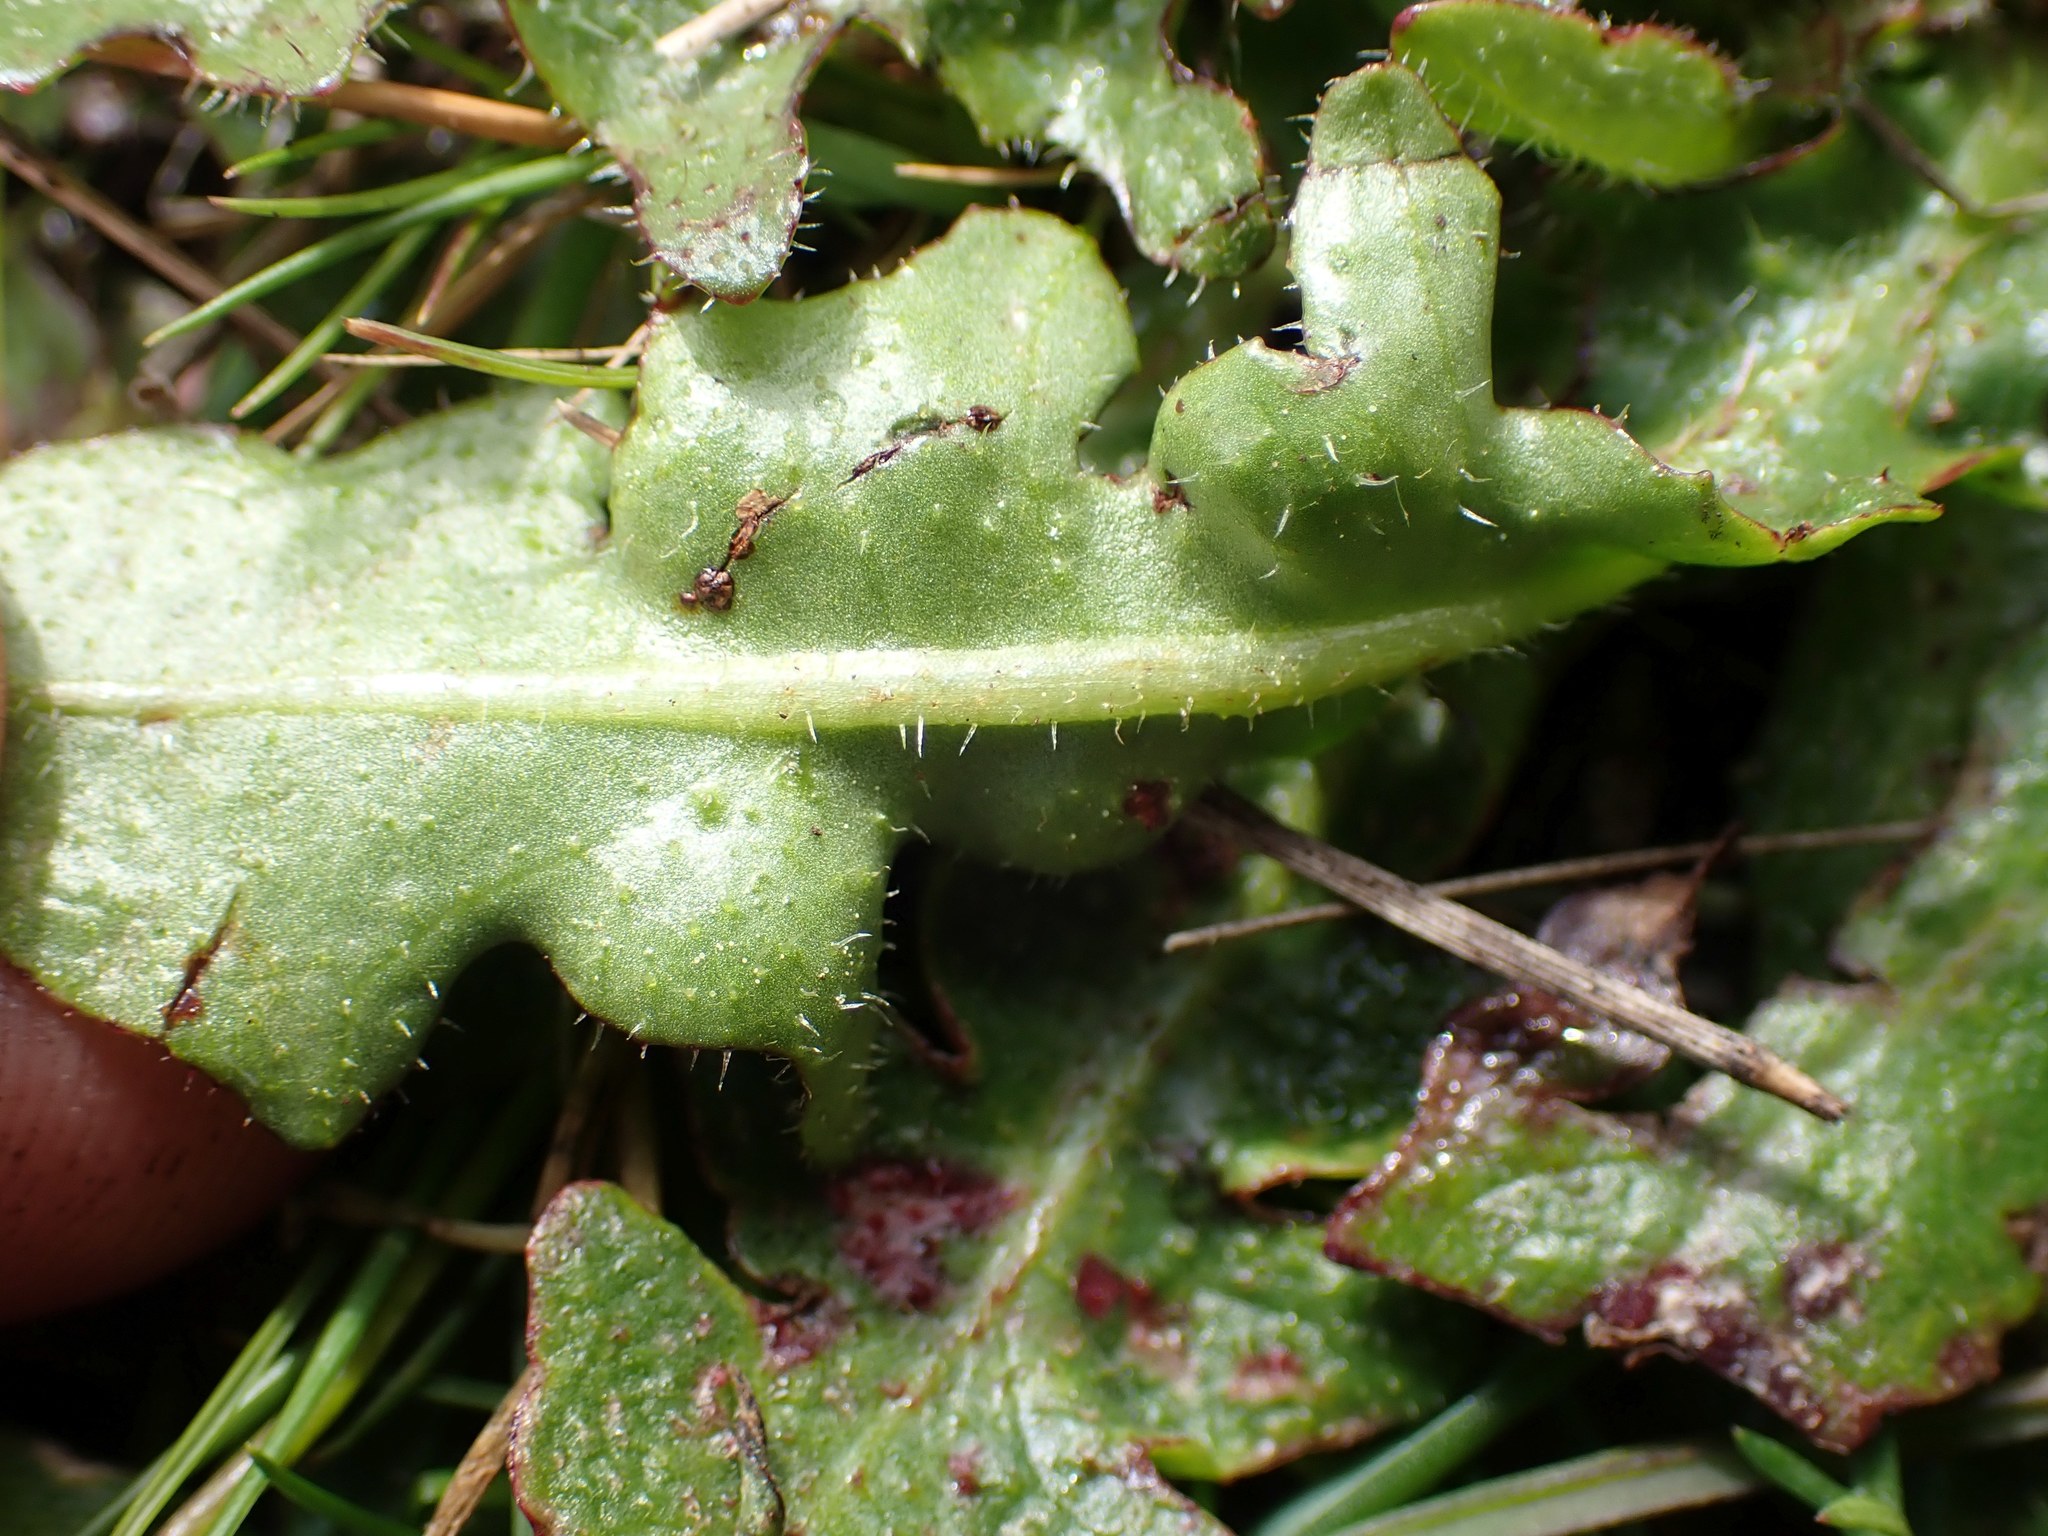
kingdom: Plantae
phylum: Tracheophyta
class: Magnoliopsida
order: Asterales
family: Asteraceae
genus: Hypochaeris
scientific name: Hypochaeris radicata
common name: Flatweed
